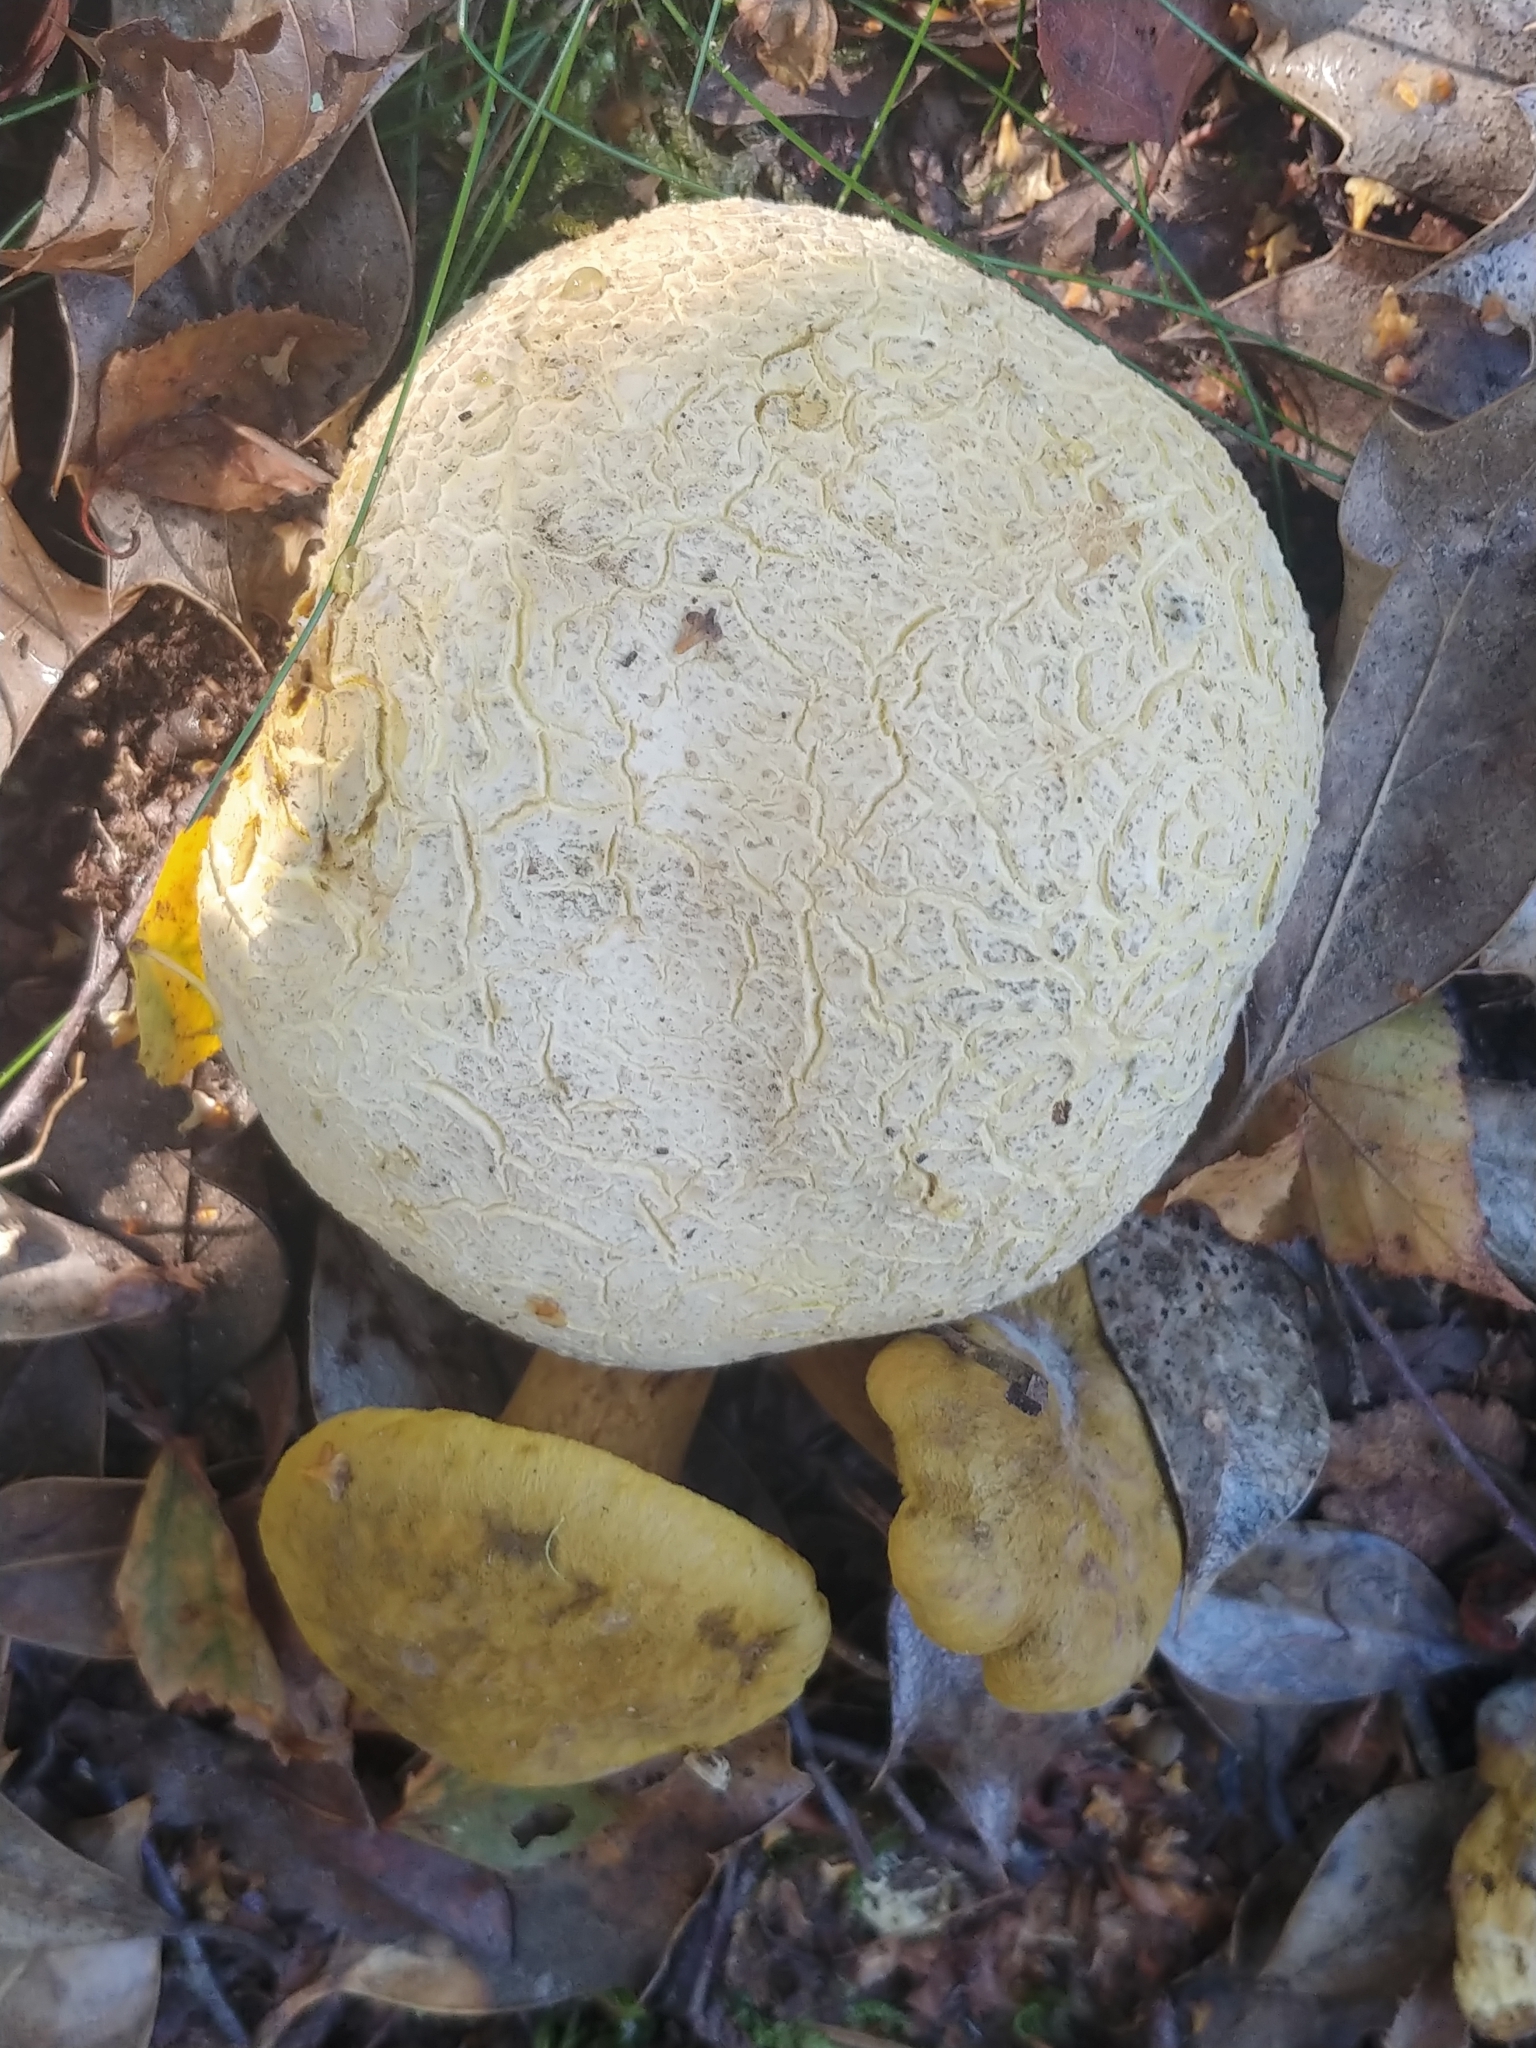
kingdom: Fungi
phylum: Basidiomycota
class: Agaricomycetes
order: Boletales
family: Boletaceae
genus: Pseudoboletus
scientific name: Pseudoboletus parasiticus
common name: Parasitic bolete
